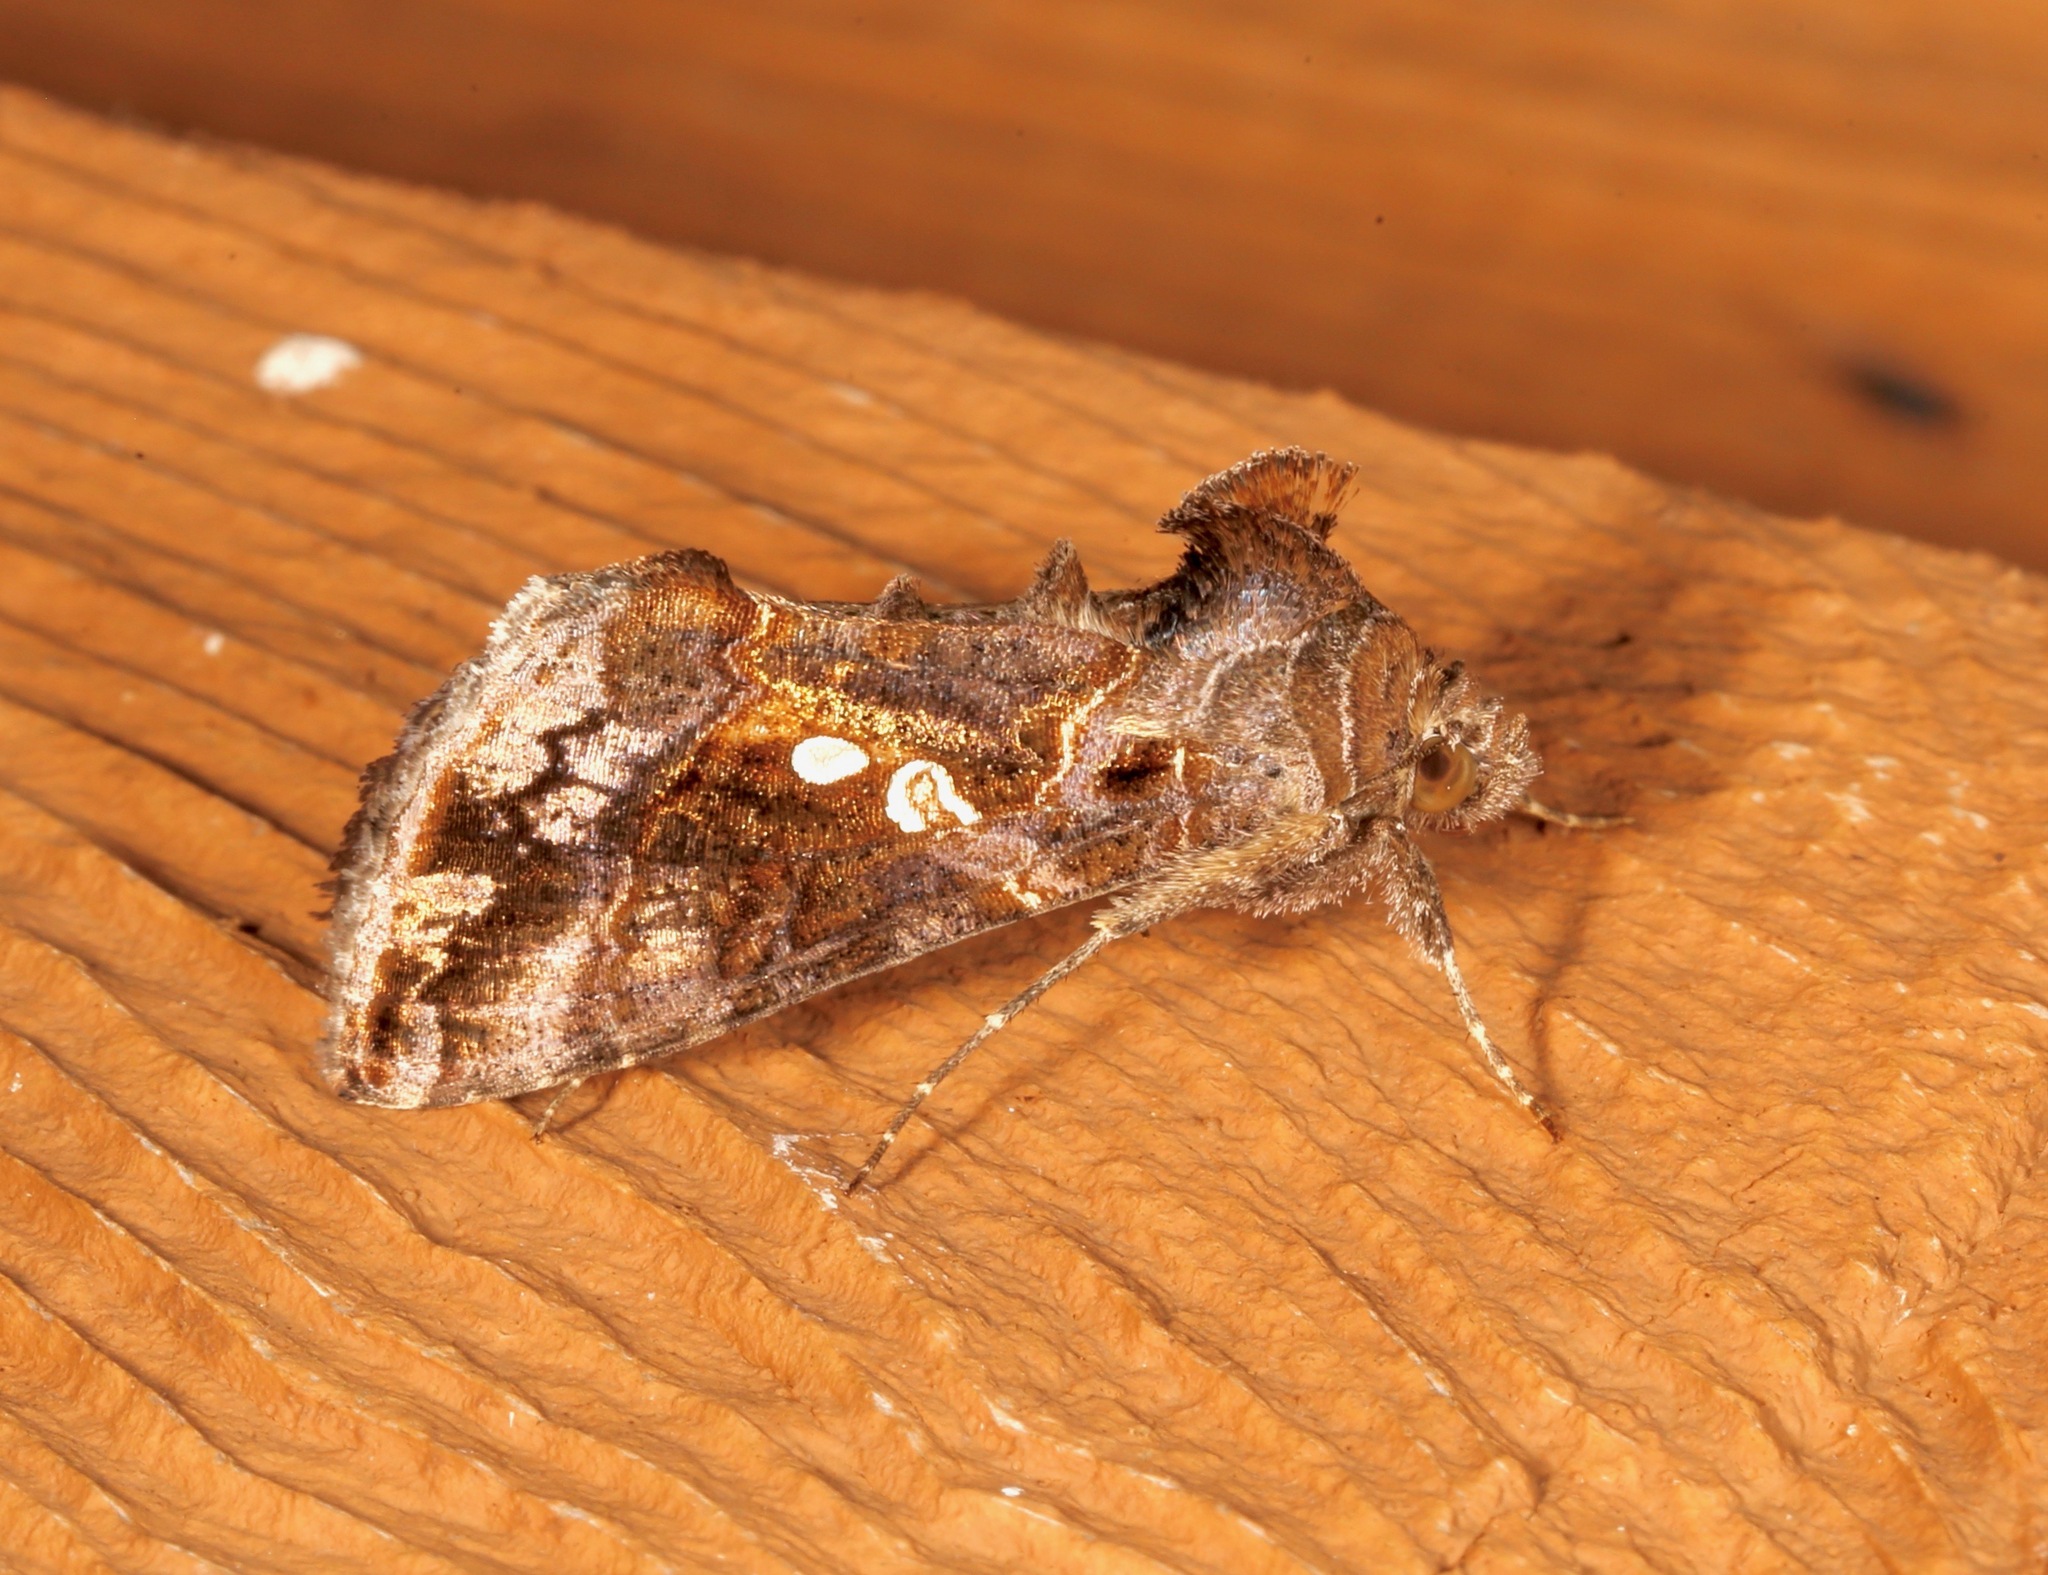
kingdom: Animalia
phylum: Arthropoda
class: Insecta
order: Lepidoptera
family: Noctuidae
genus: Chrysodeixis
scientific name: Chrysodeixis includens
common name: Cutworm moth
